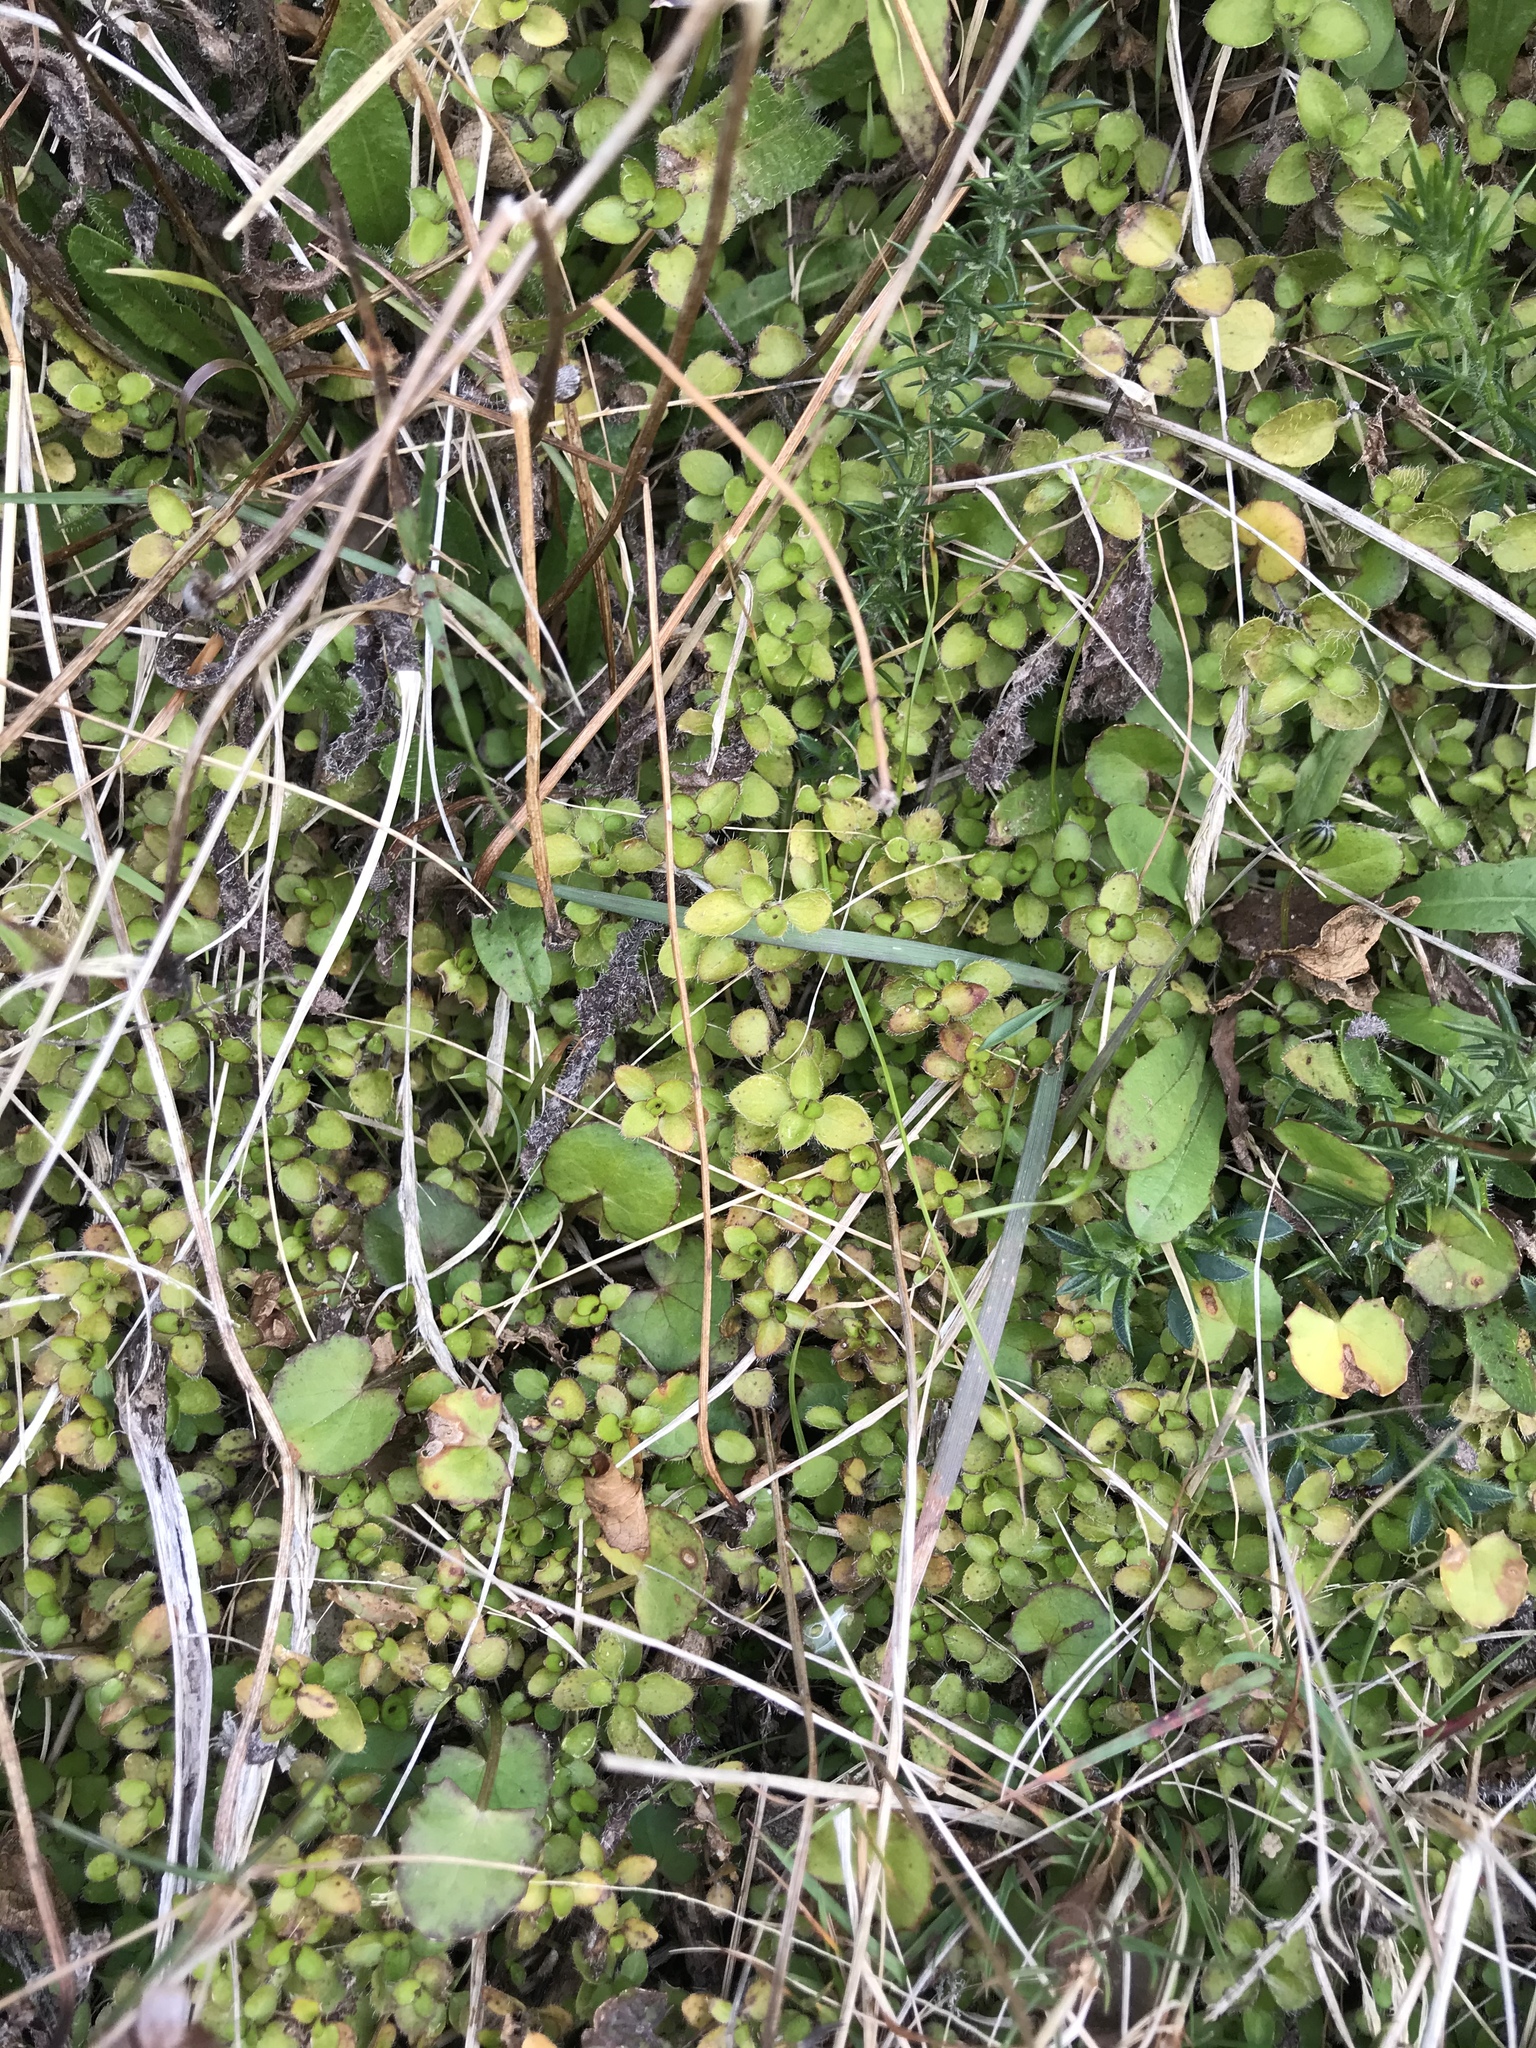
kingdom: Plantae
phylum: Tracheophyta
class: Magnoliopsida
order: Gentianales
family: Rubiaceae
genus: Leptostigma
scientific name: Leptostigma setulosum
